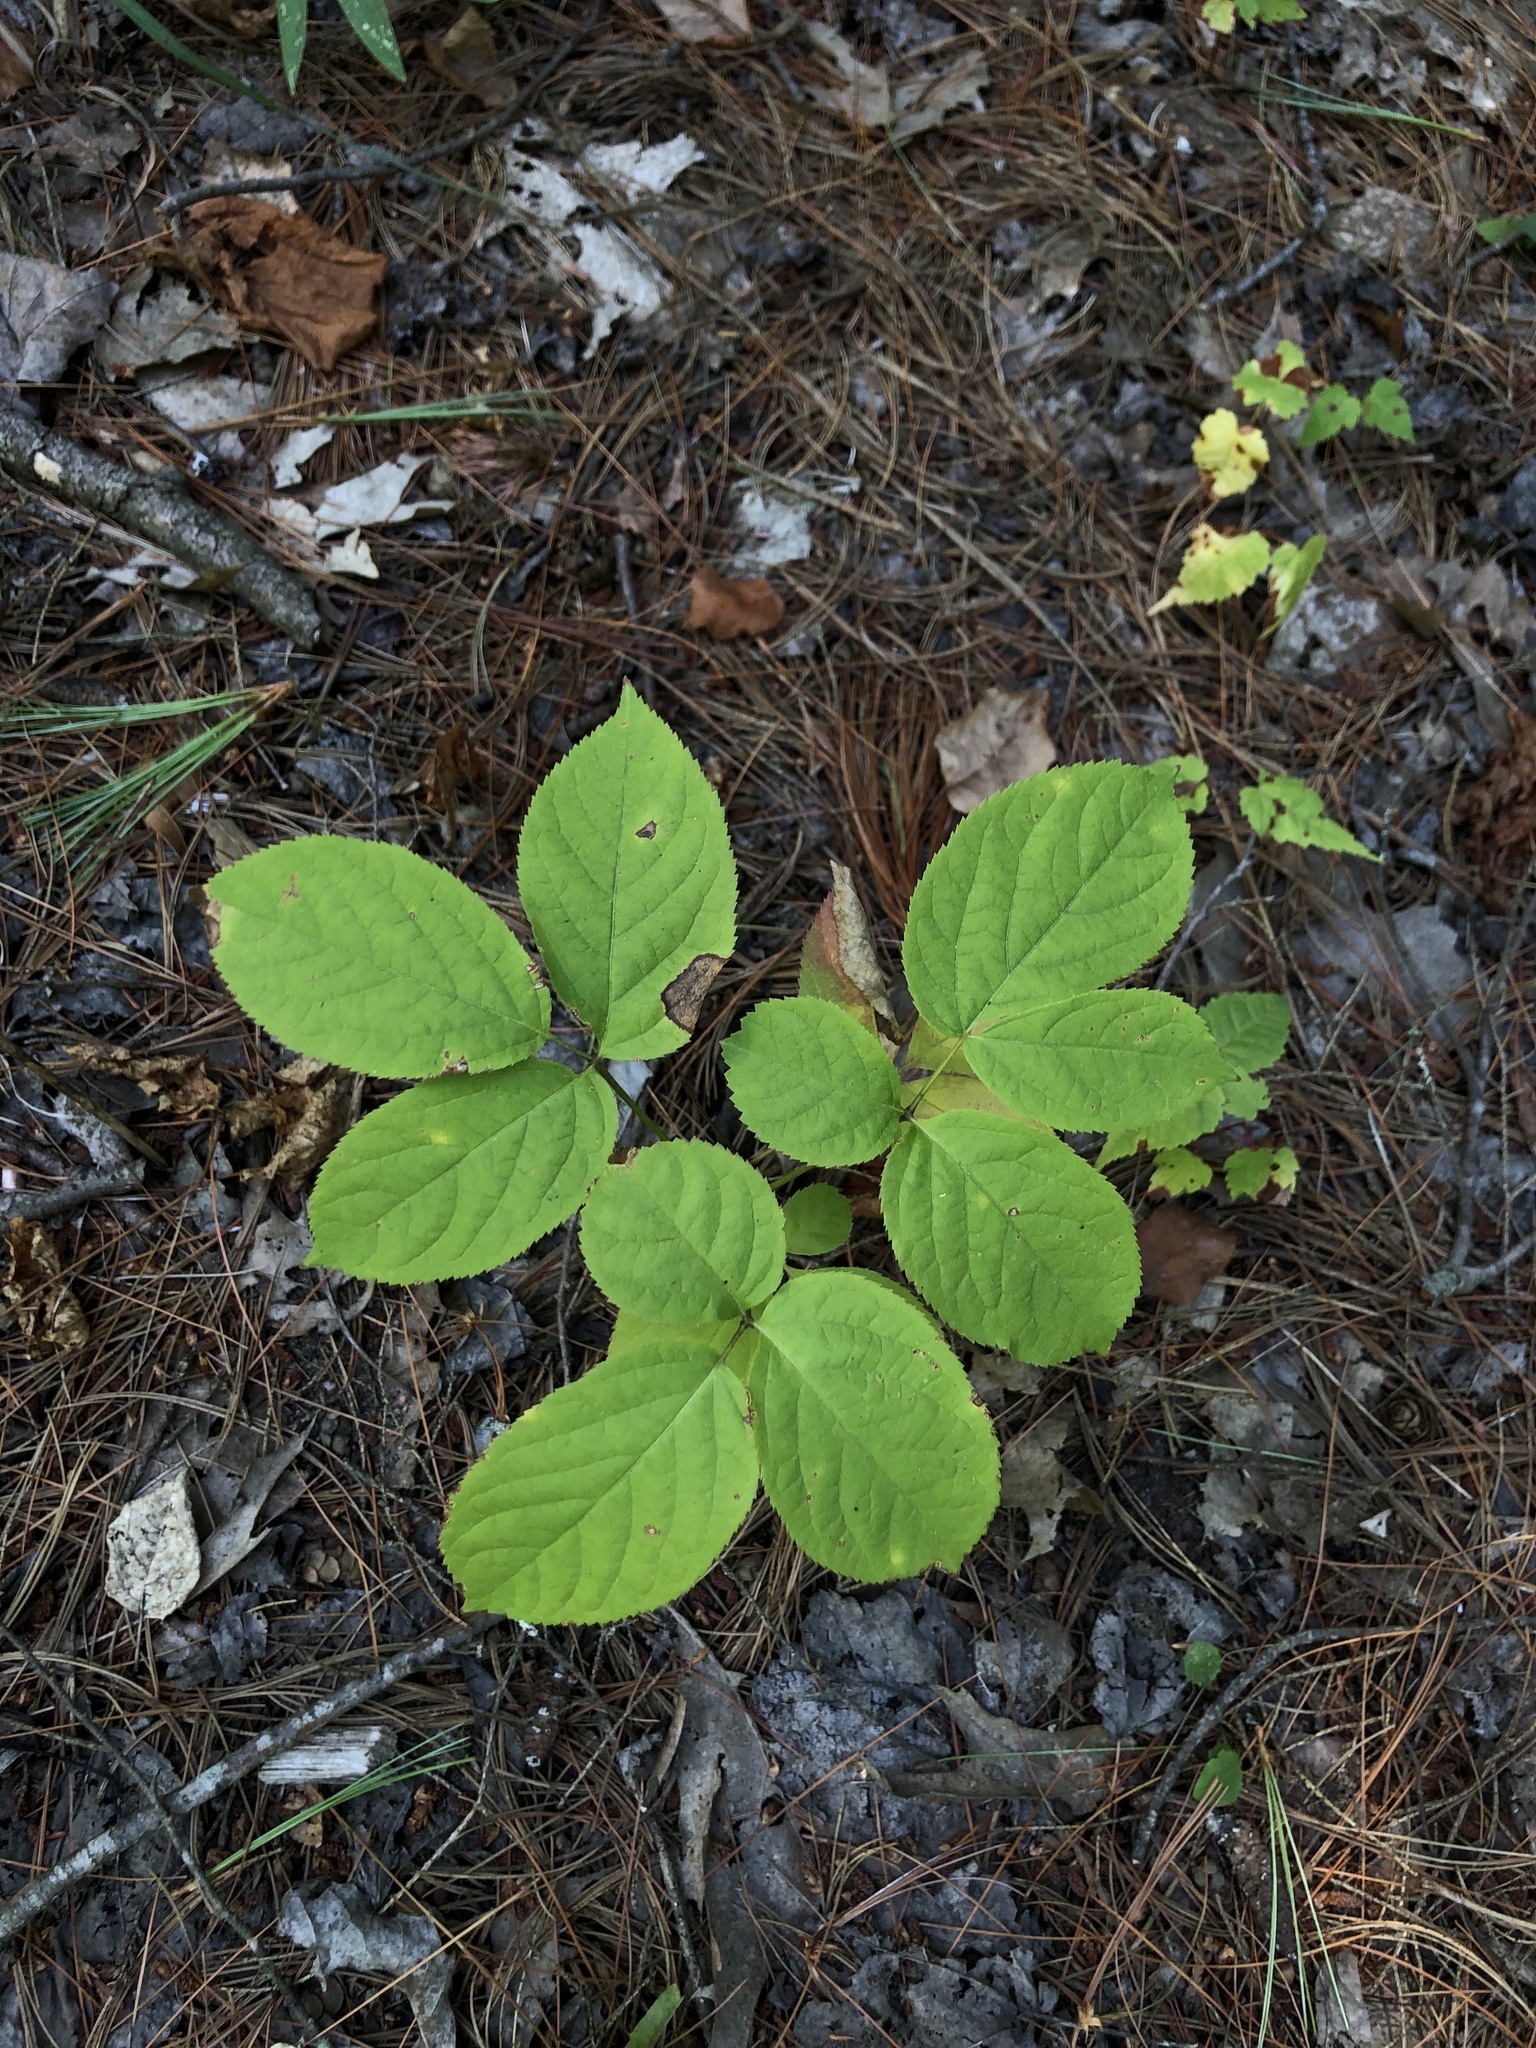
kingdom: Plantae
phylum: Tracheophyta
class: Magnoliopsida
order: Apiales
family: Araliaceae
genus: Aralia
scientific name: Aralia nudicaulis
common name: Wild sarsaparilla
